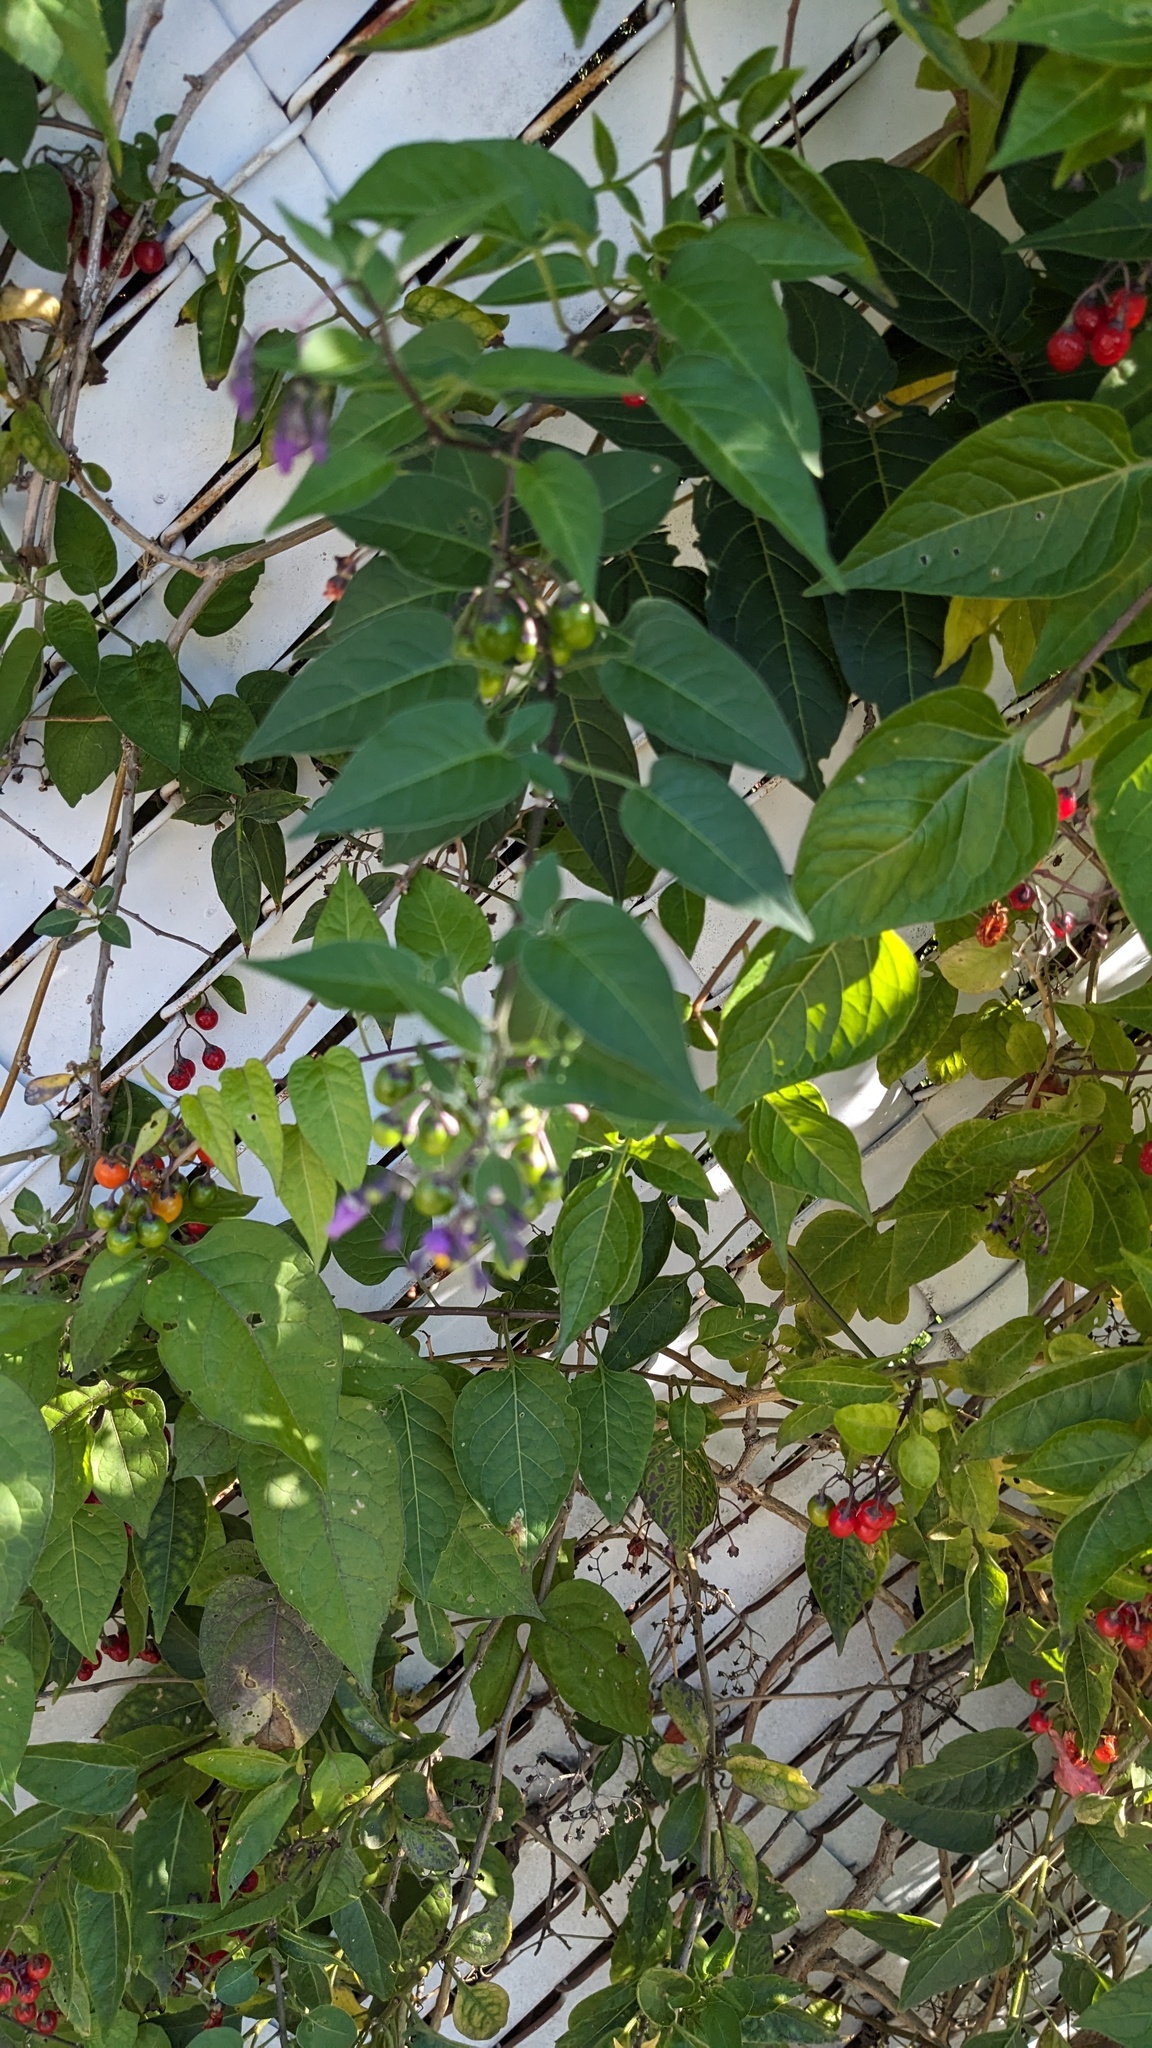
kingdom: Plantae
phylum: Tracheophyta
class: Magnoliopsida
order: Solanales
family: Solanaceae
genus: Solanum
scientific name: Solanum dulcamara
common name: Climbing nightshade
